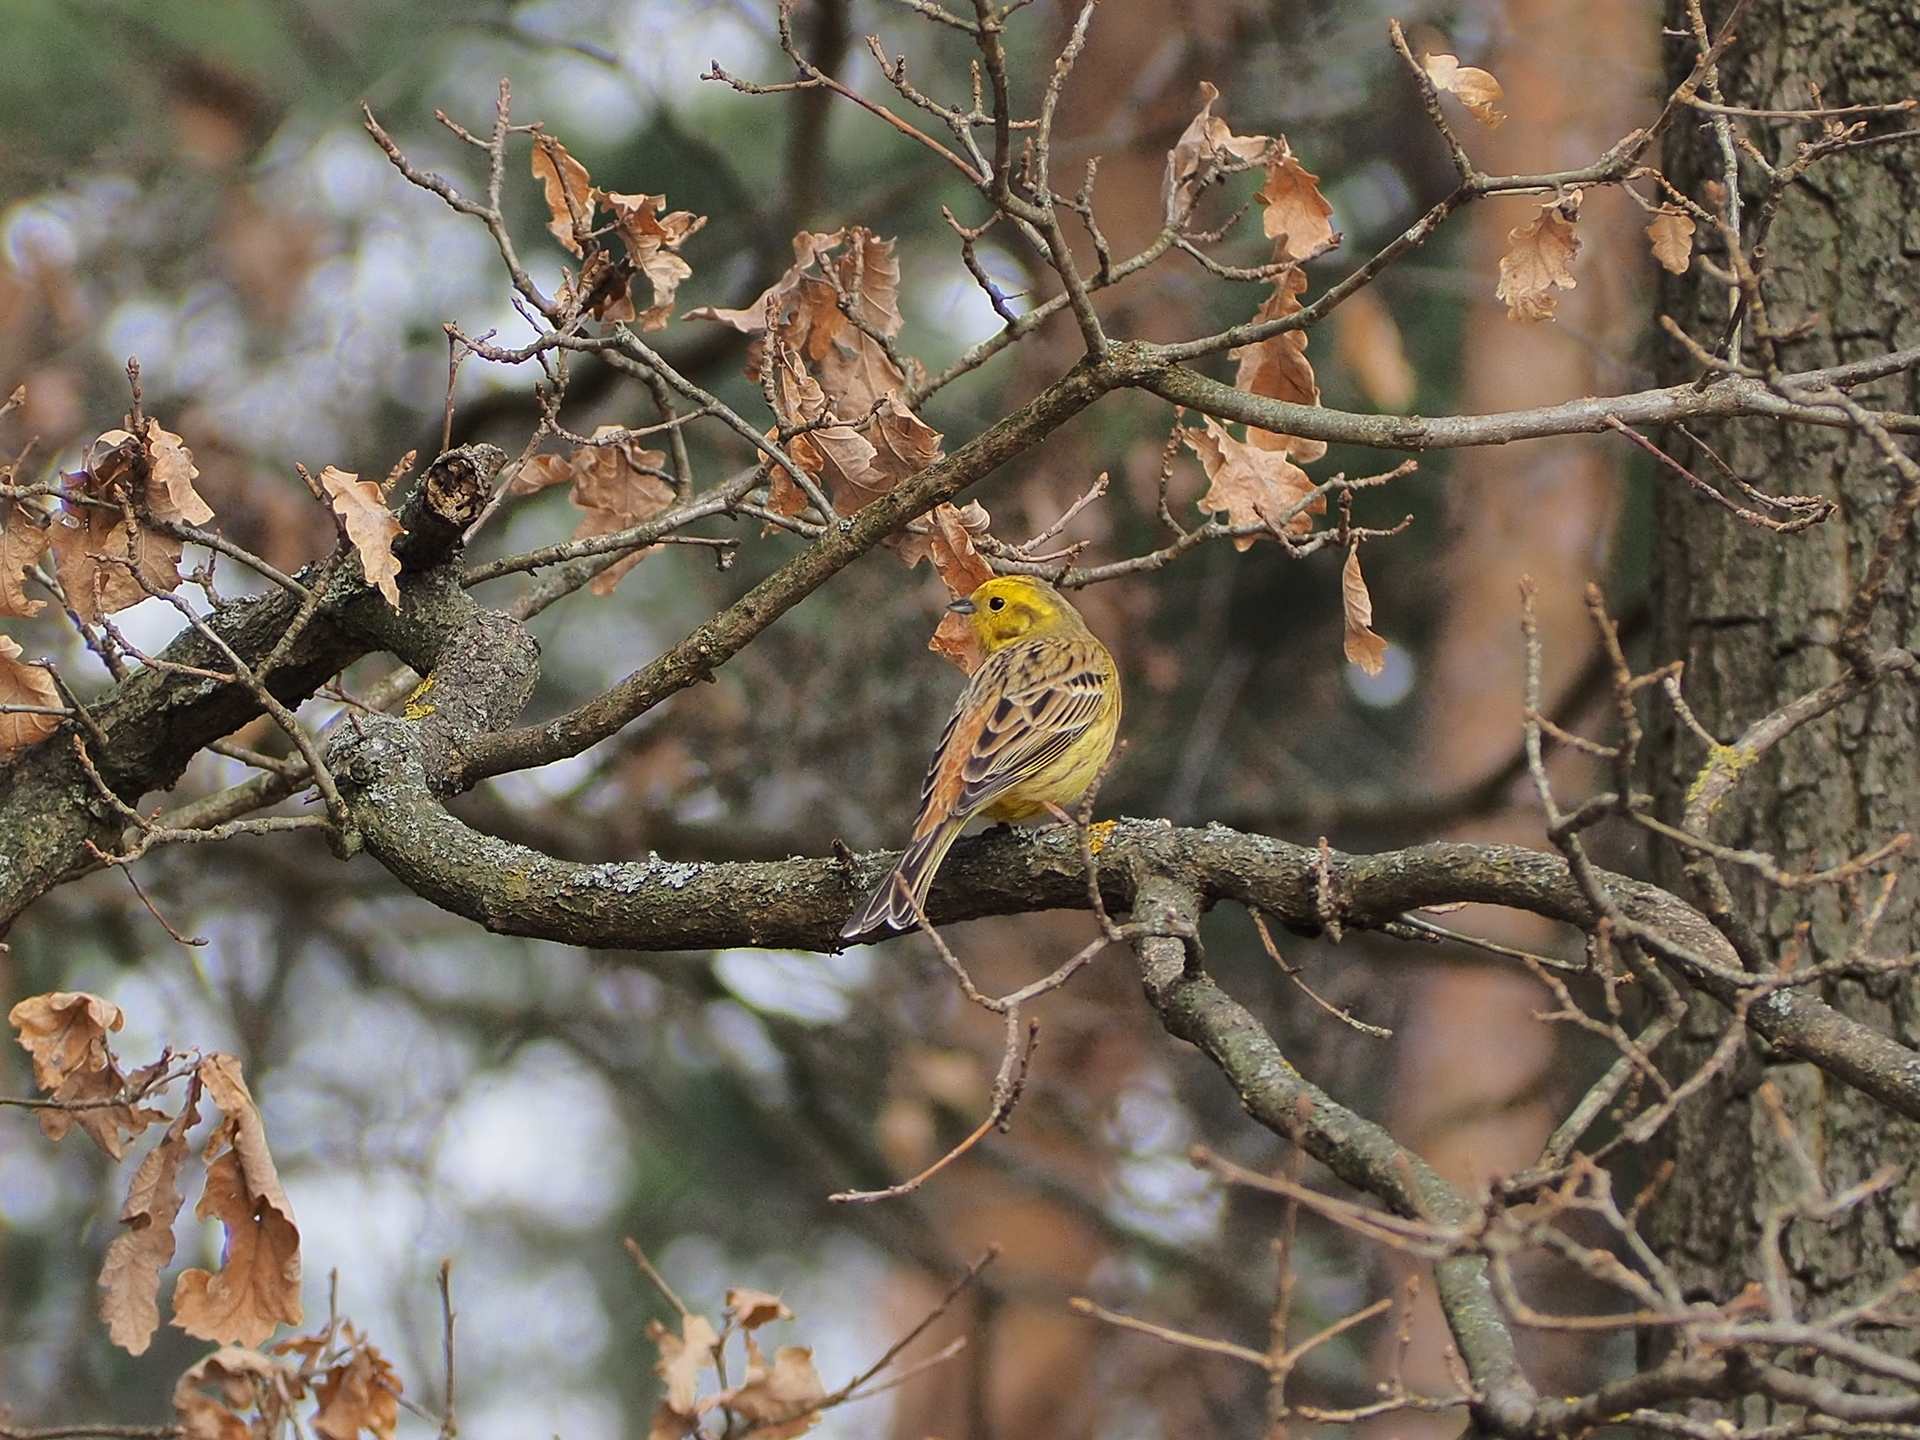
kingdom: Animalia
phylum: Chordata
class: Aves
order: Passeriformes
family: Emberizidae
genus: Emberiza
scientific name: Emberiza citrinella
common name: Yellowhammer
